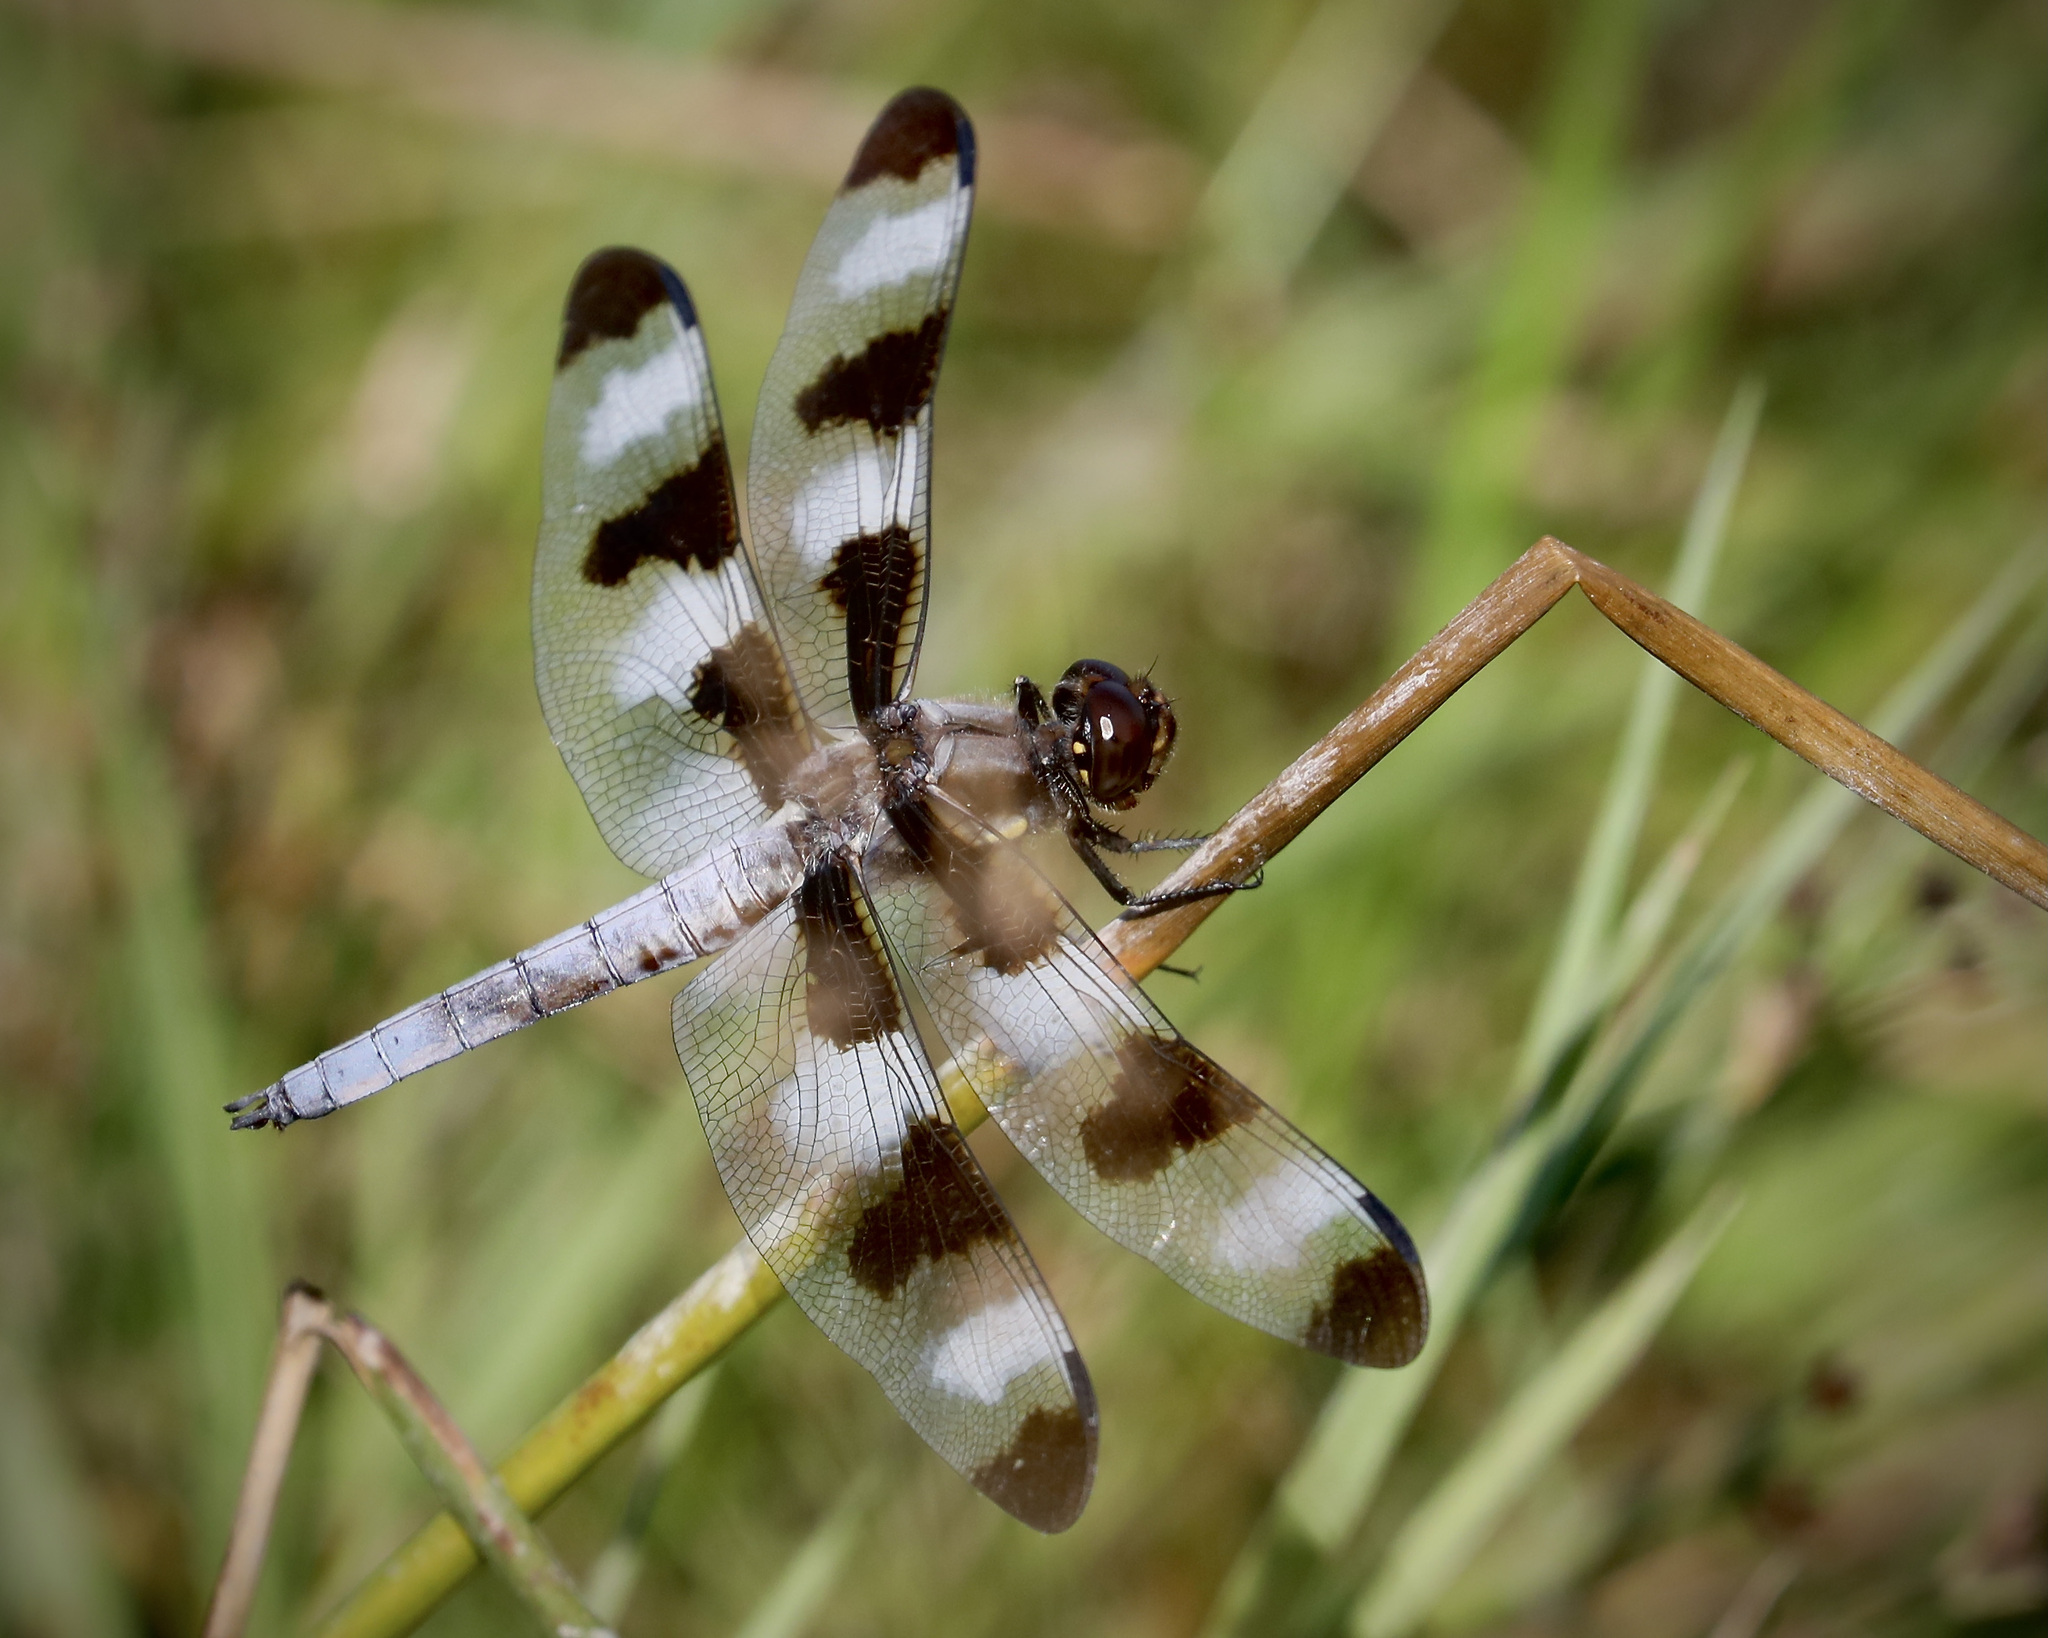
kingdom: Animalia
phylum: Arthropoda
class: Insecta
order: Odonata
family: Libellulidae
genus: Libellula
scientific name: Libellula pulchella
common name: Twelve-spotted skimmer
